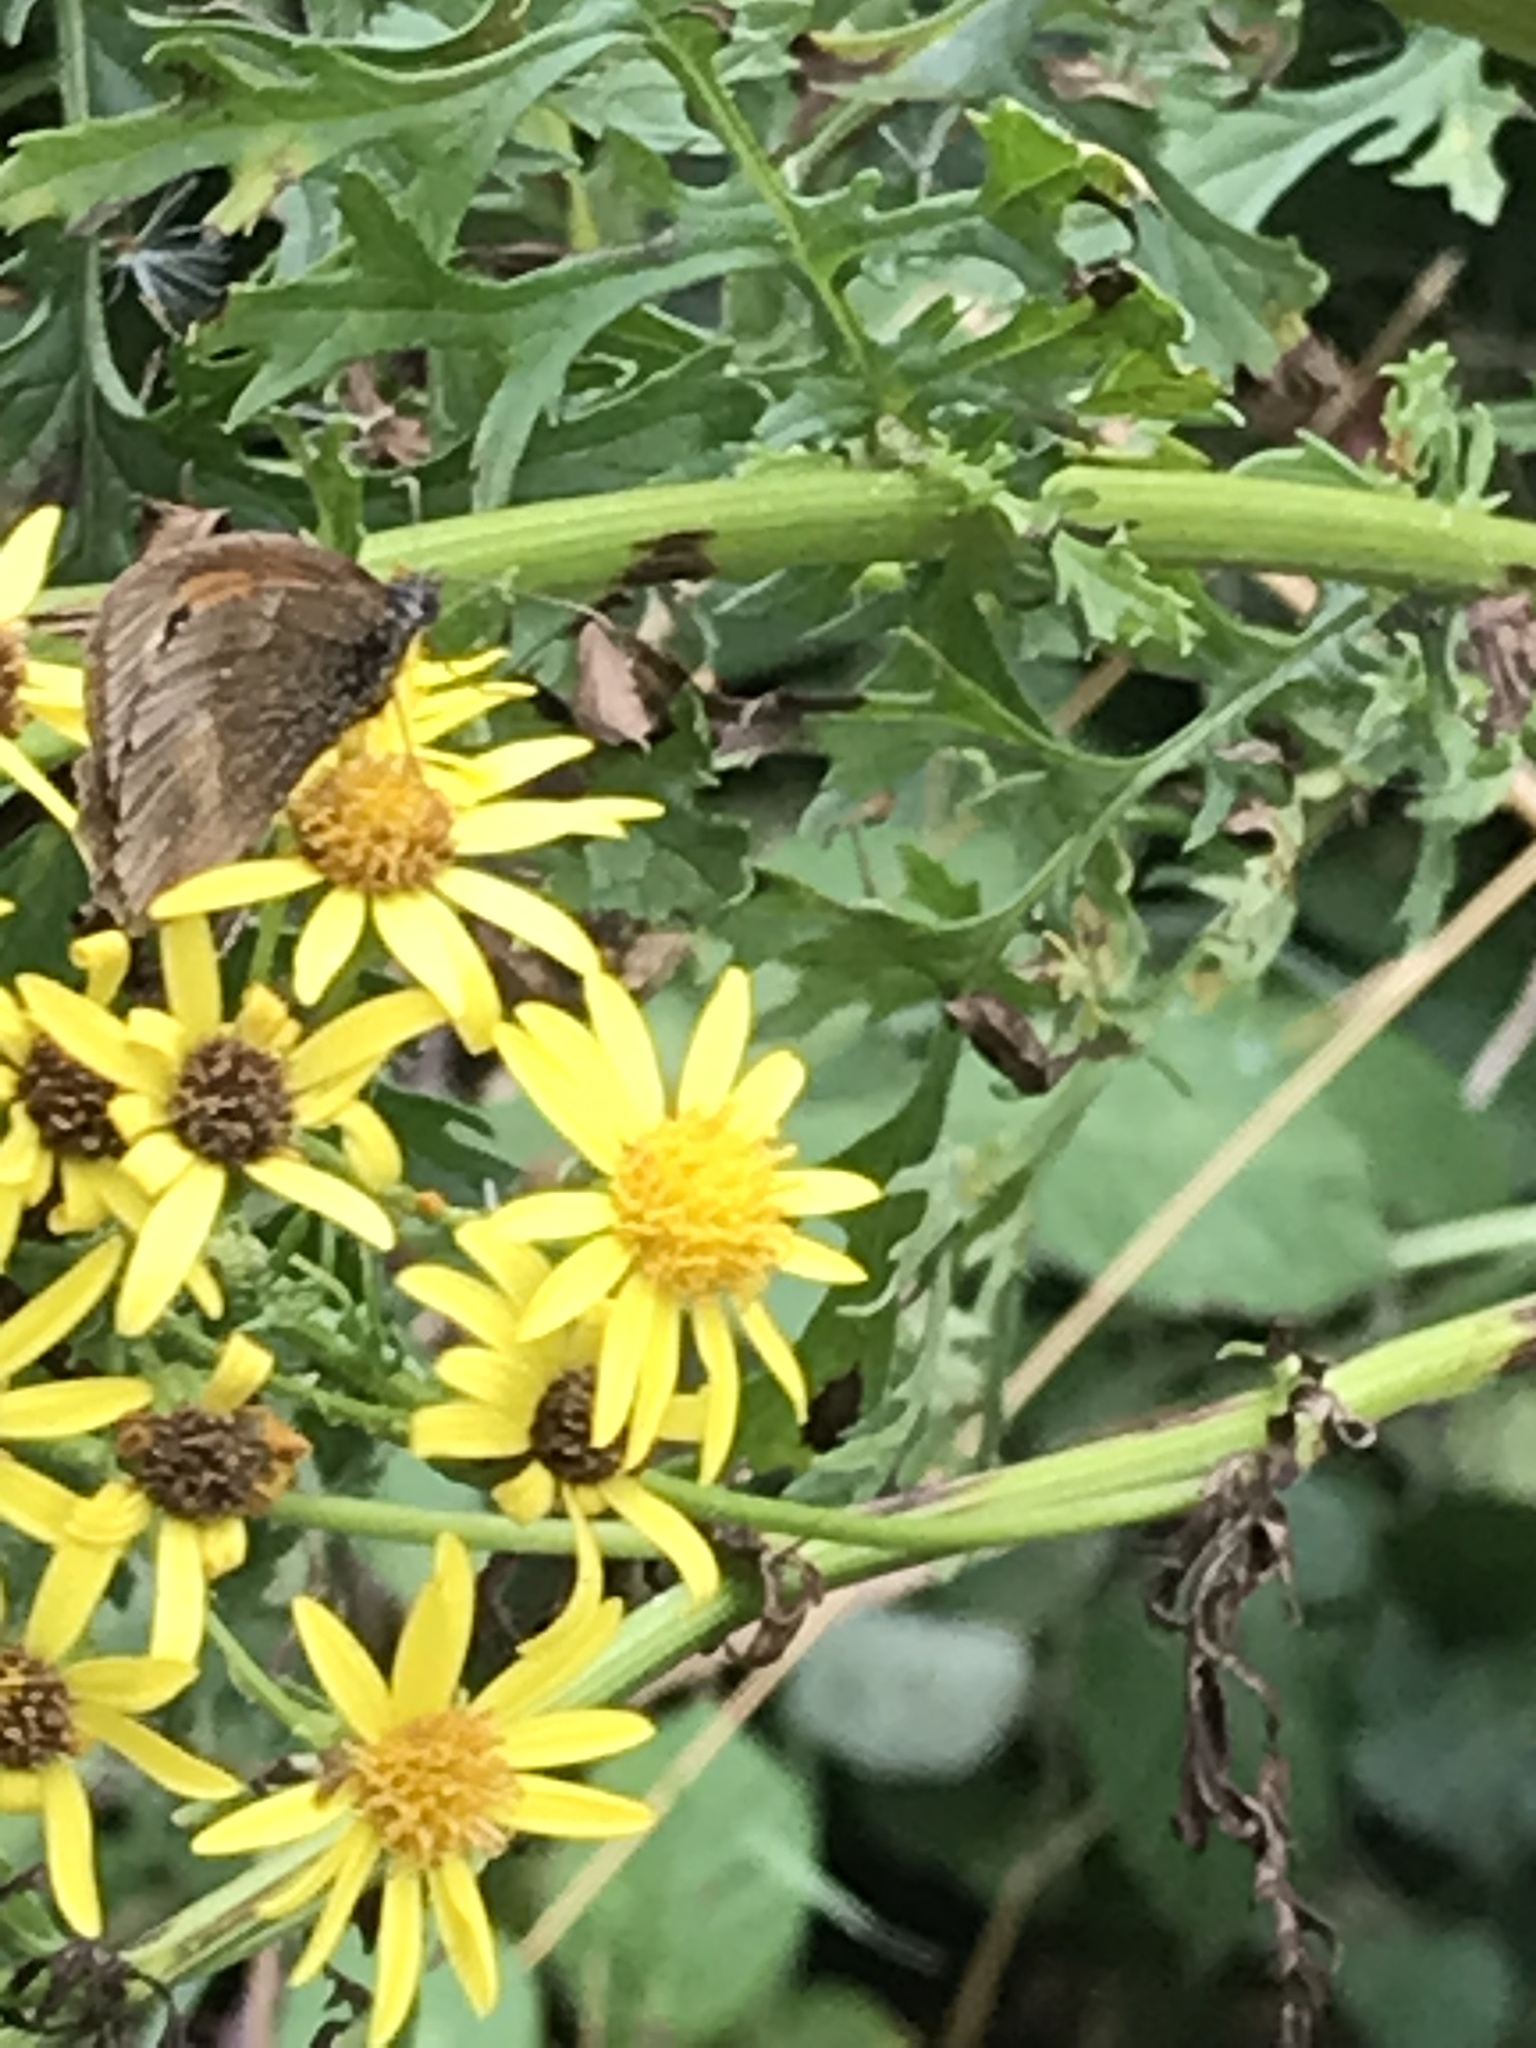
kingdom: Animalia
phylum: Arthropoda
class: Insecta
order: Lepidoptera
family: Nymphalidae
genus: Pyronia
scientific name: Pyronia tithonus
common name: Gatekeeper
